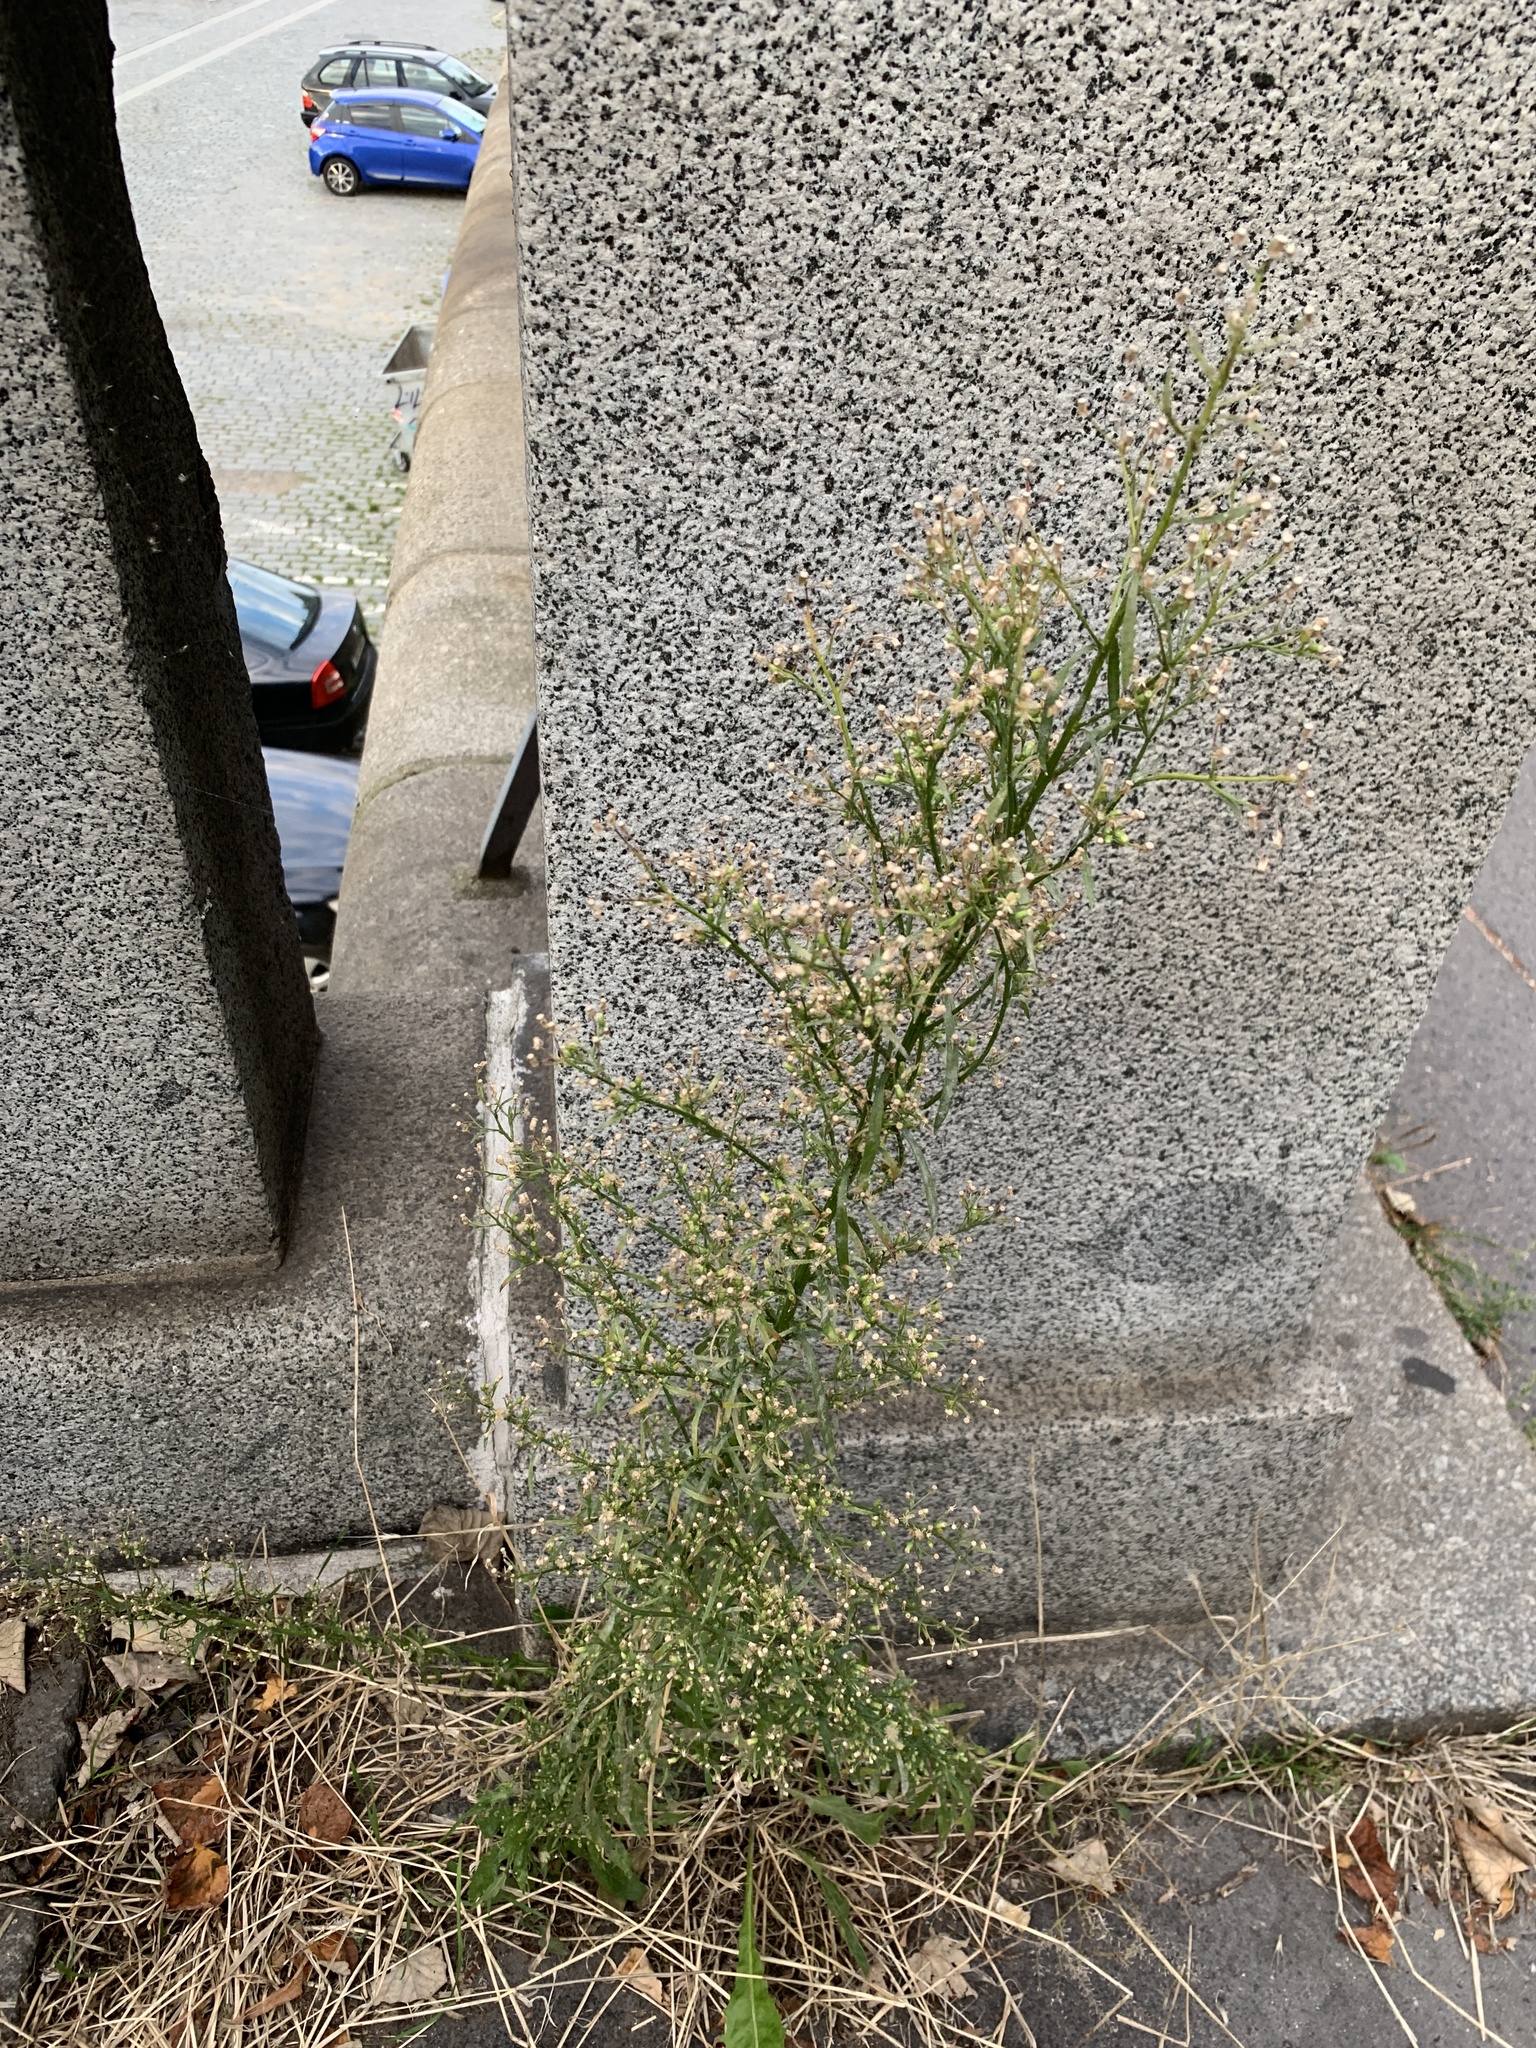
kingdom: Plantae
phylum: Tracheophyta
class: Magnoliopsida
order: Asterales
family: Asteraceae
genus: Erigeron
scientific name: Erigeron canadensis
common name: Canadian fleabane
